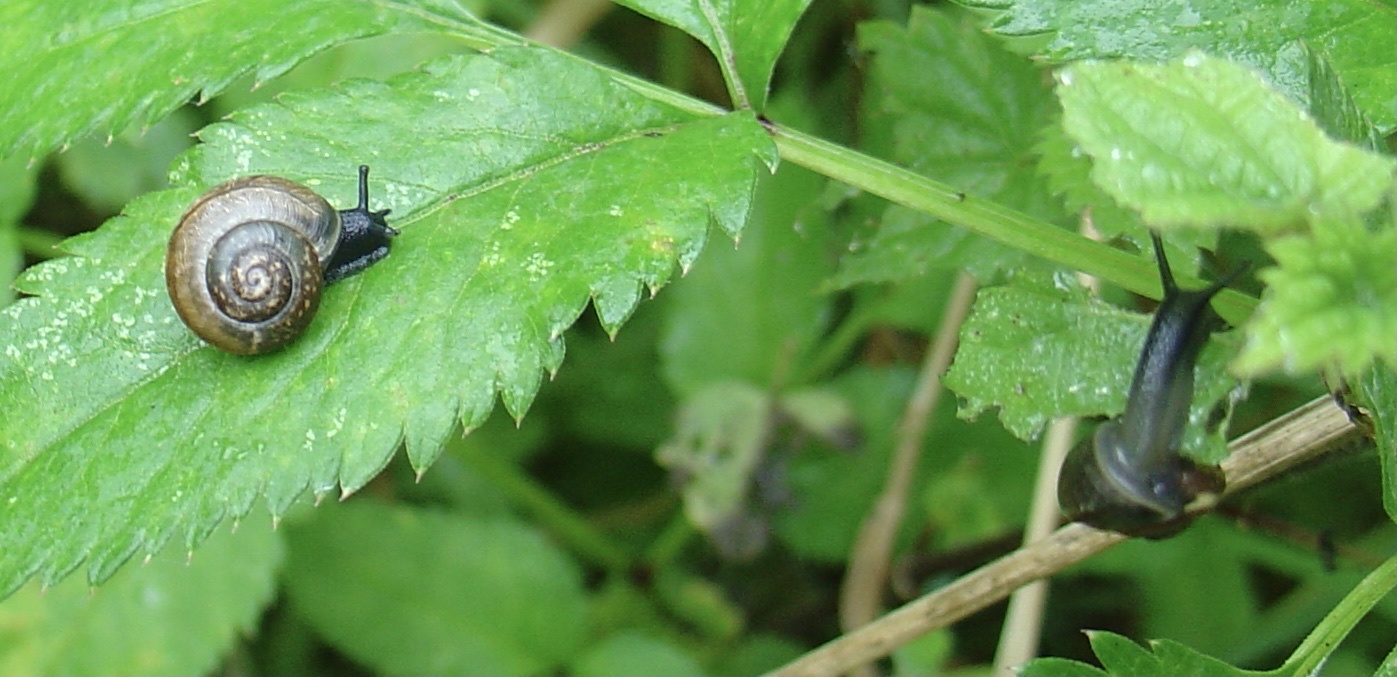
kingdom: Animalia
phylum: Mollusca
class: Gastropoda
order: Stylommatophora
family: Helicidae
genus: Arianta
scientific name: Arianta arbustorum
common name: Copse snail
